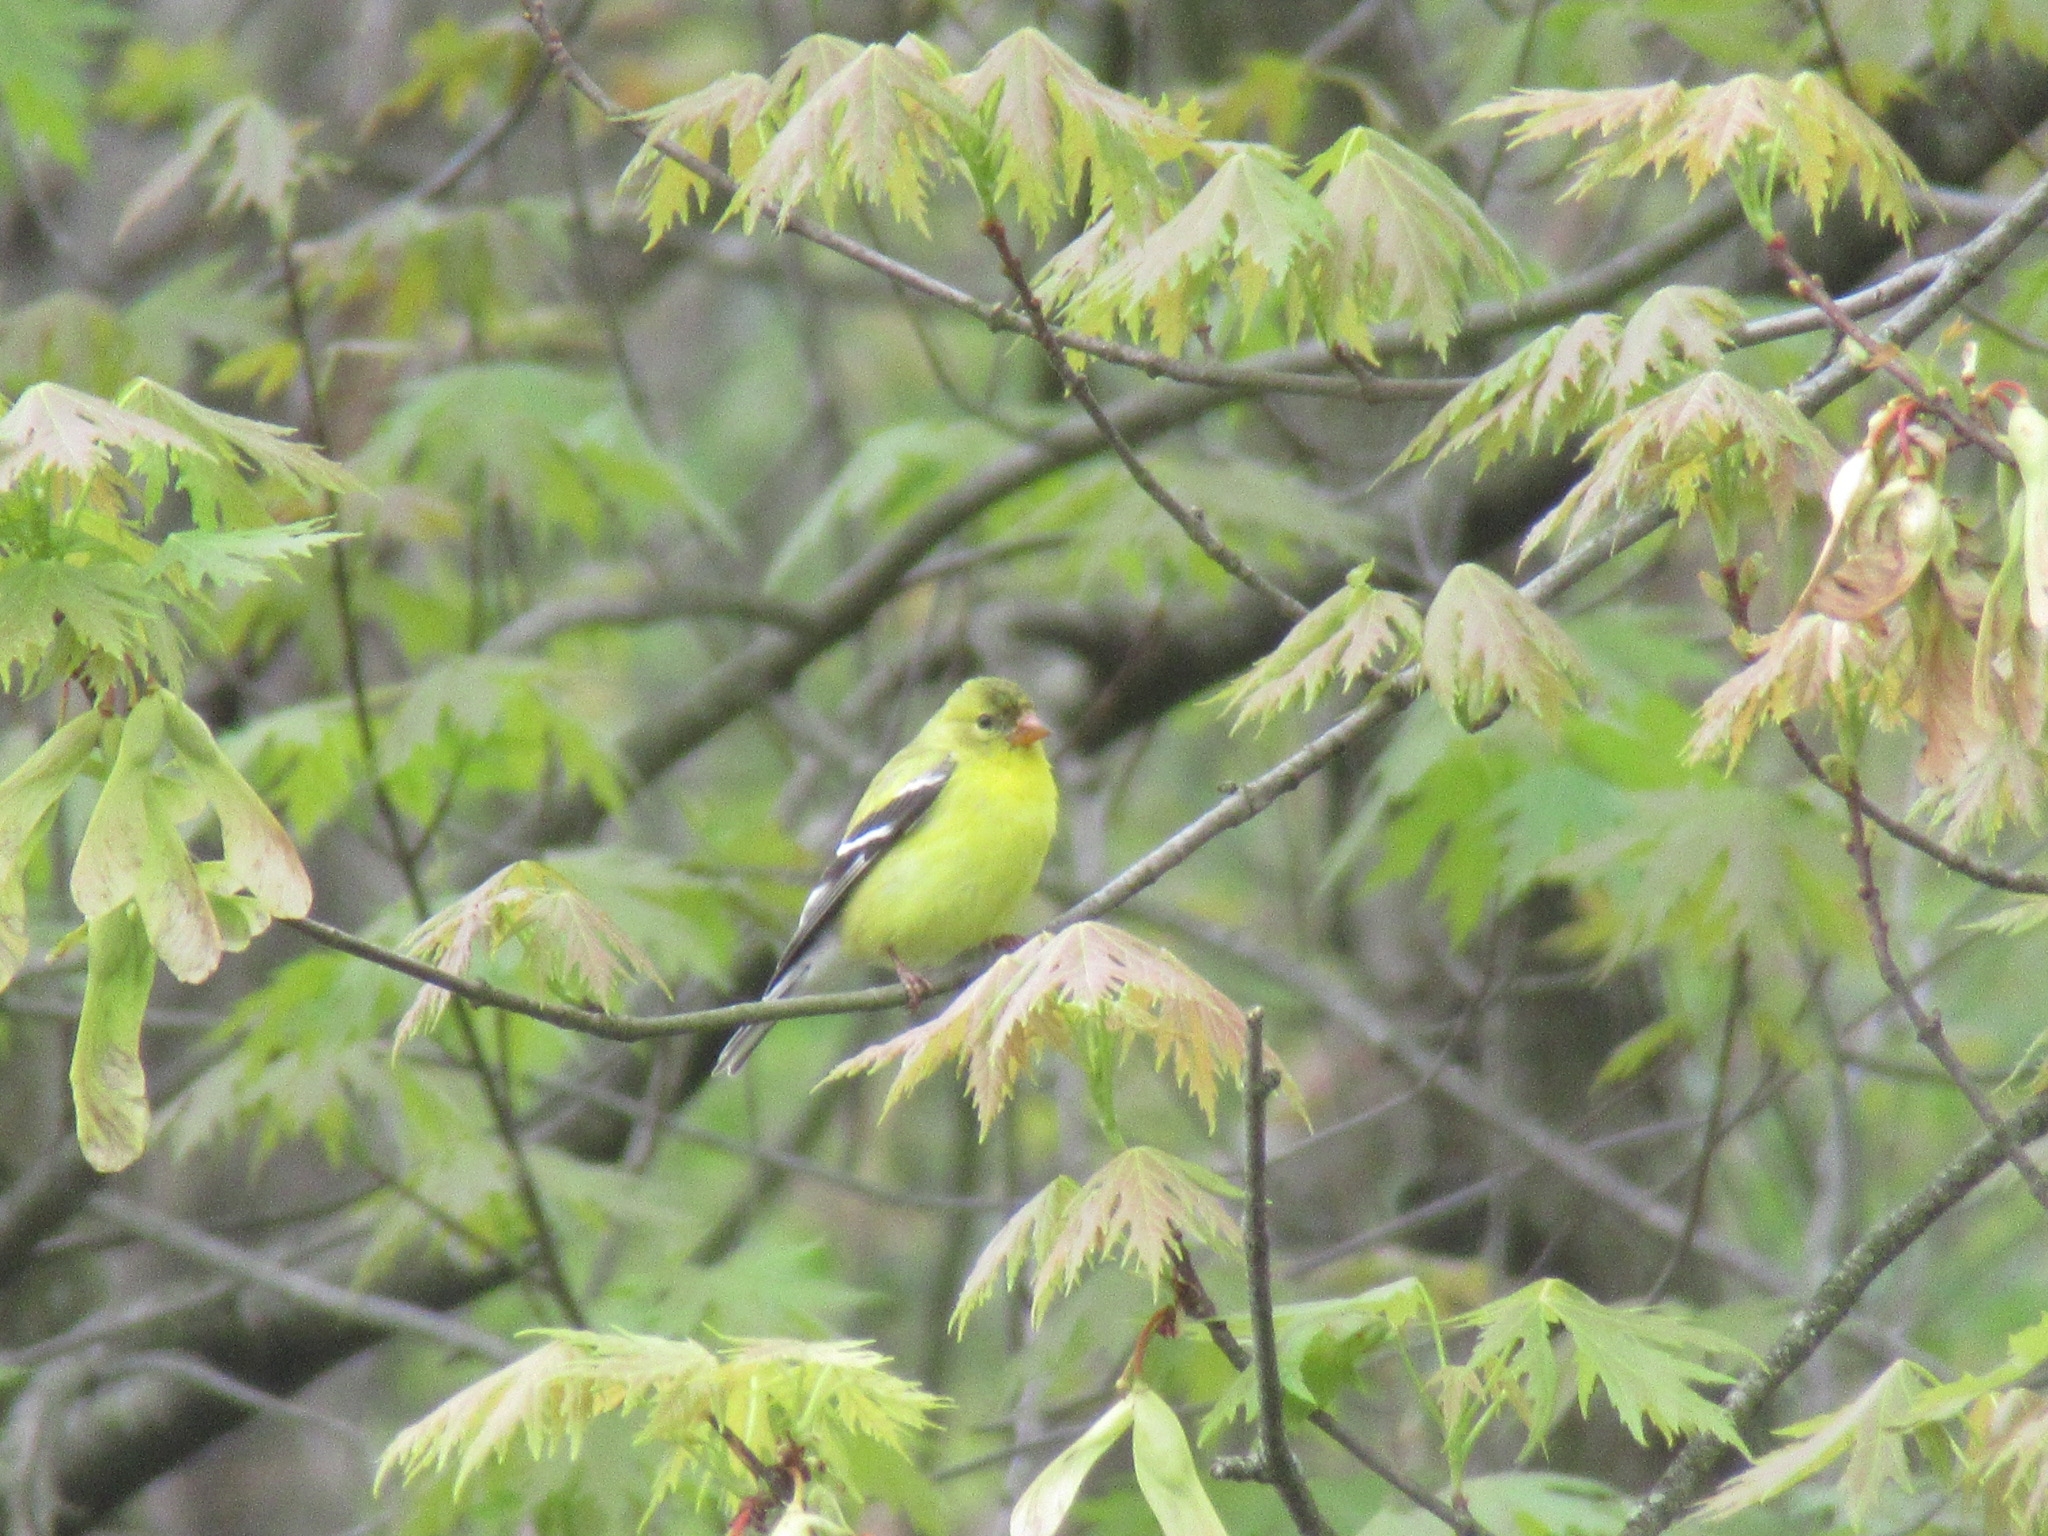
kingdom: Animalia
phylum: Chordata
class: Aves
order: Passeriformes
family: Fringillidae
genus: Spinus
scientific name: Spinus tristis
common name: American goldfinch
